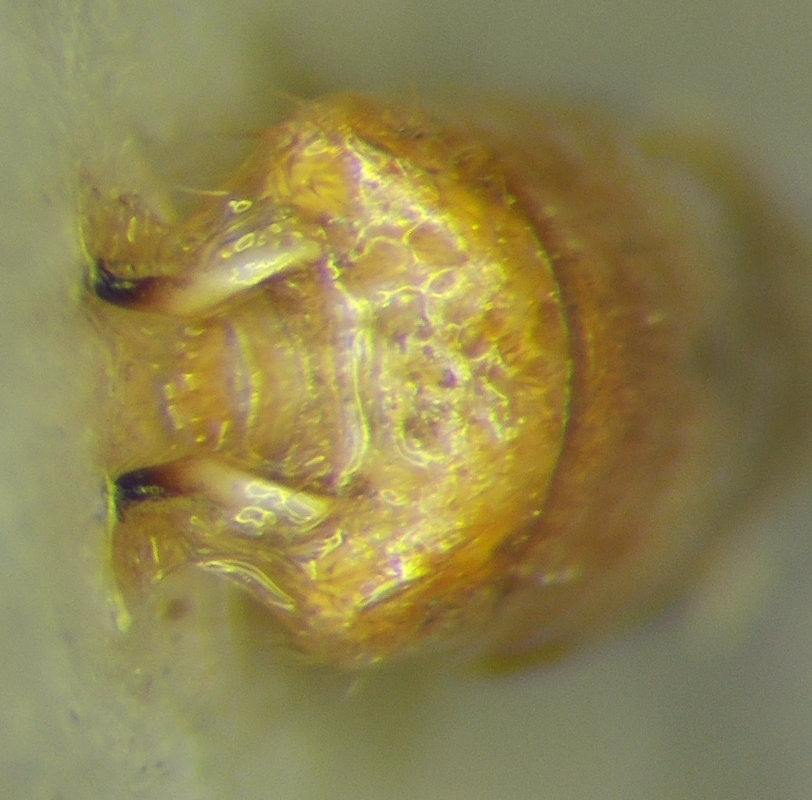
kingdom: Animalia
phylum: Arthropoda
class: Insecta
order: Hemiptera
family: Rhopalidae
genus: Rhopalus
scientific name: Rhopalus parumpunctatus
